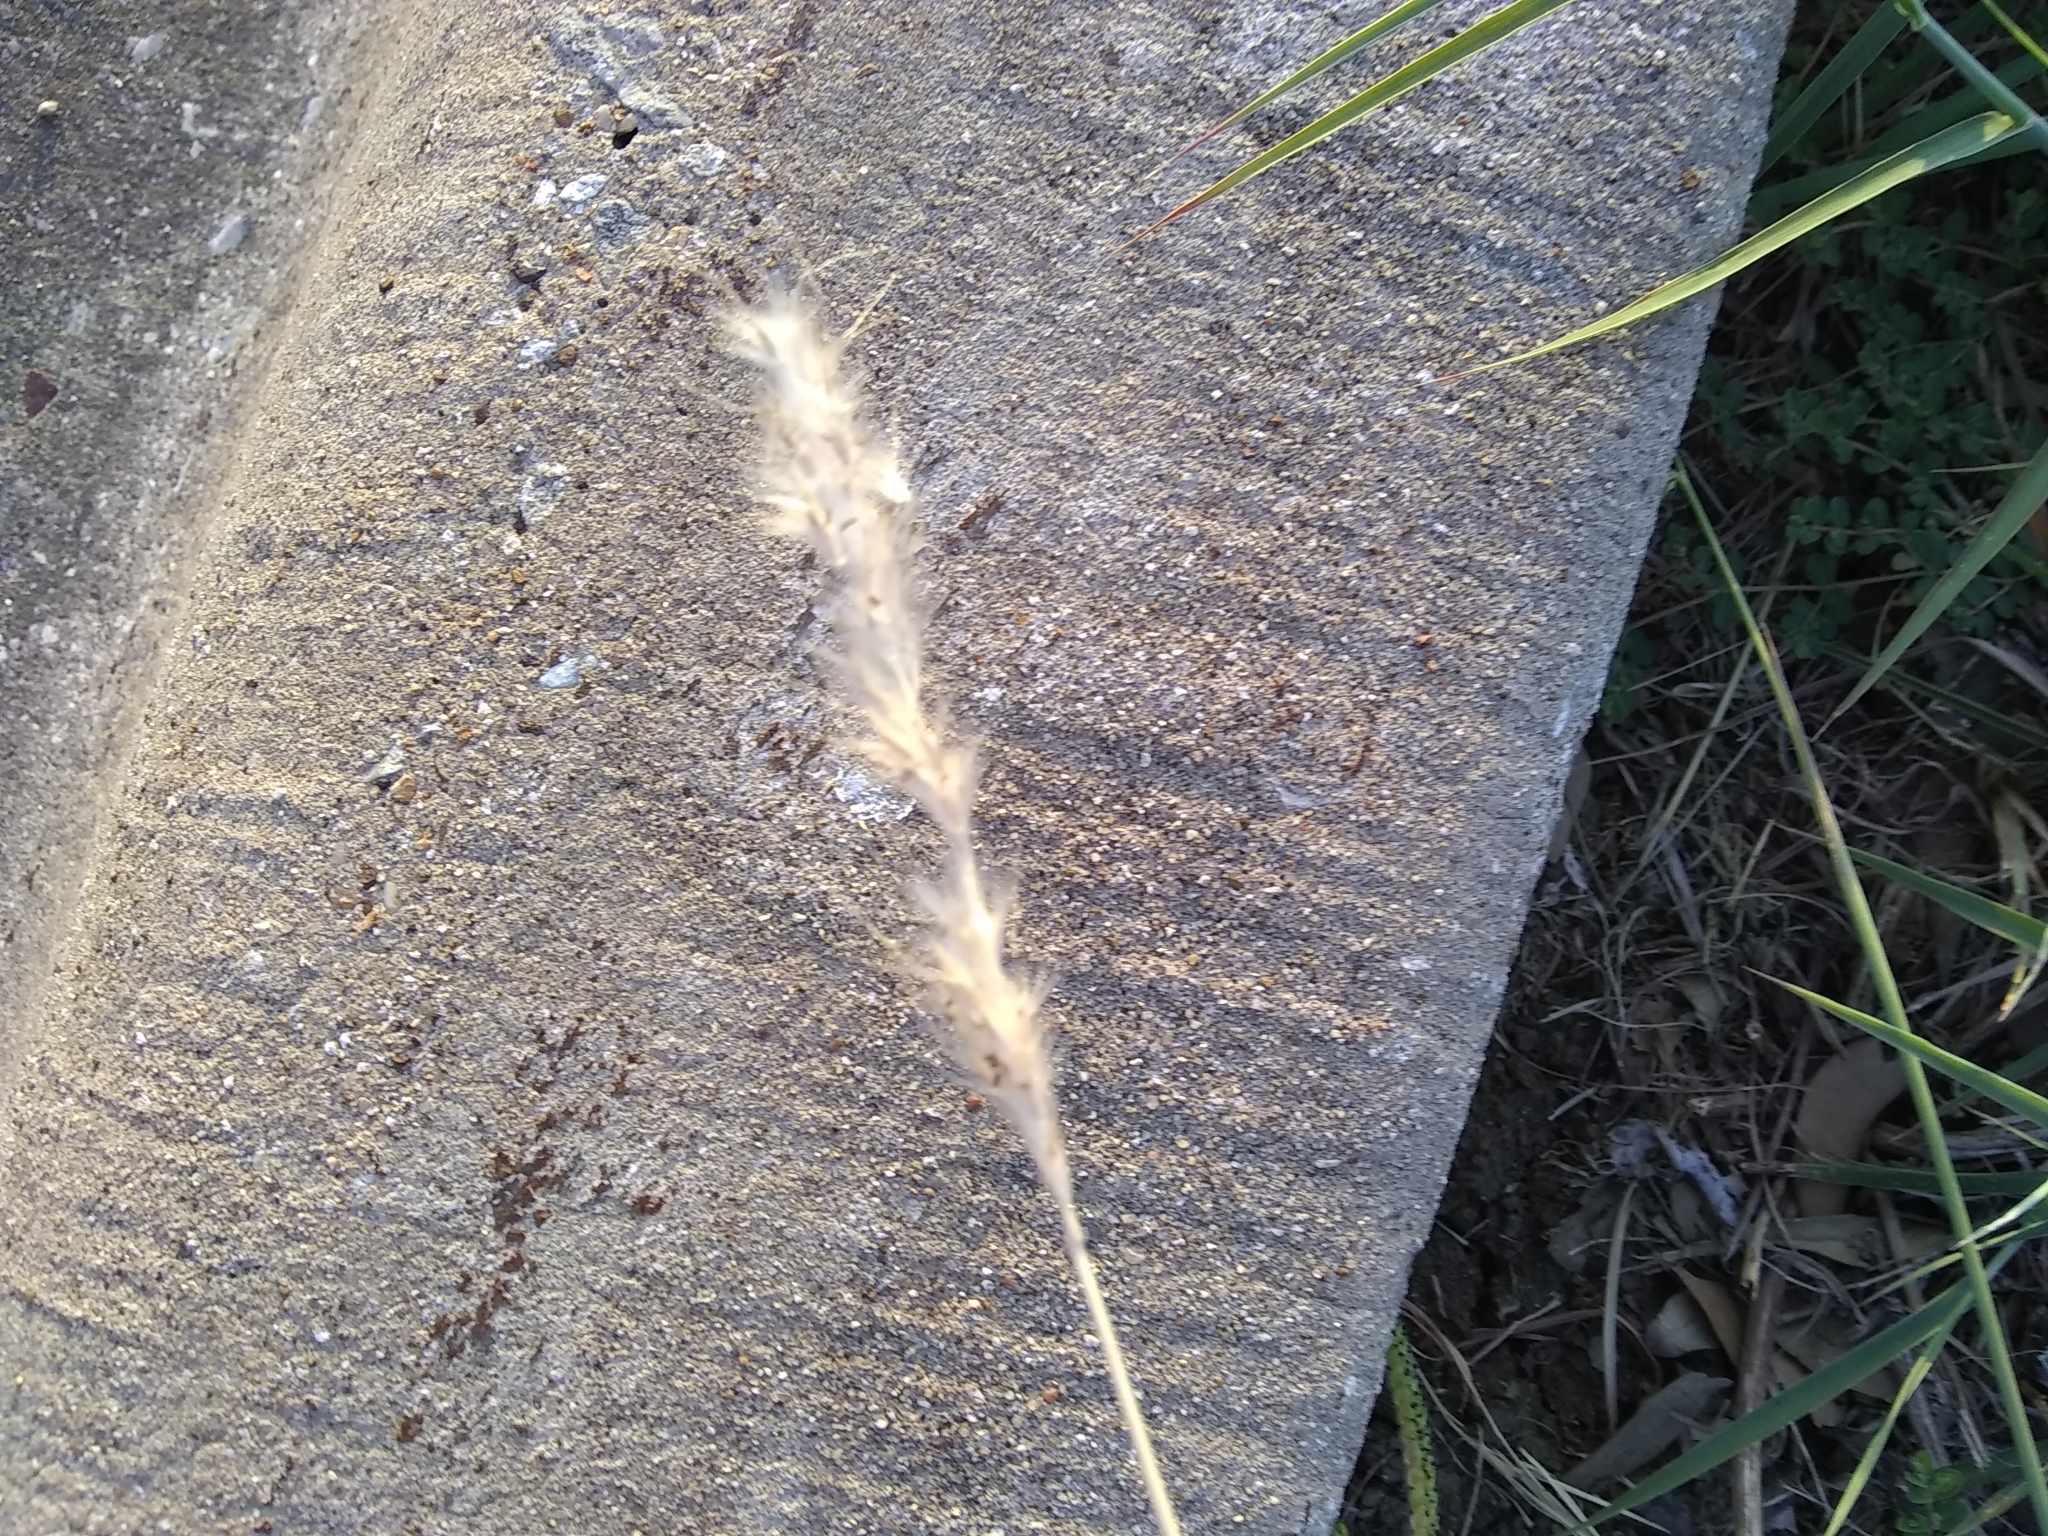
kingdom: Plantae
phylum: Tracheophyta
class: Liliopsida
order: Poales
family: Poaceae
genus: Bothriochloa
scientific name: Bothriochloa torreyana
